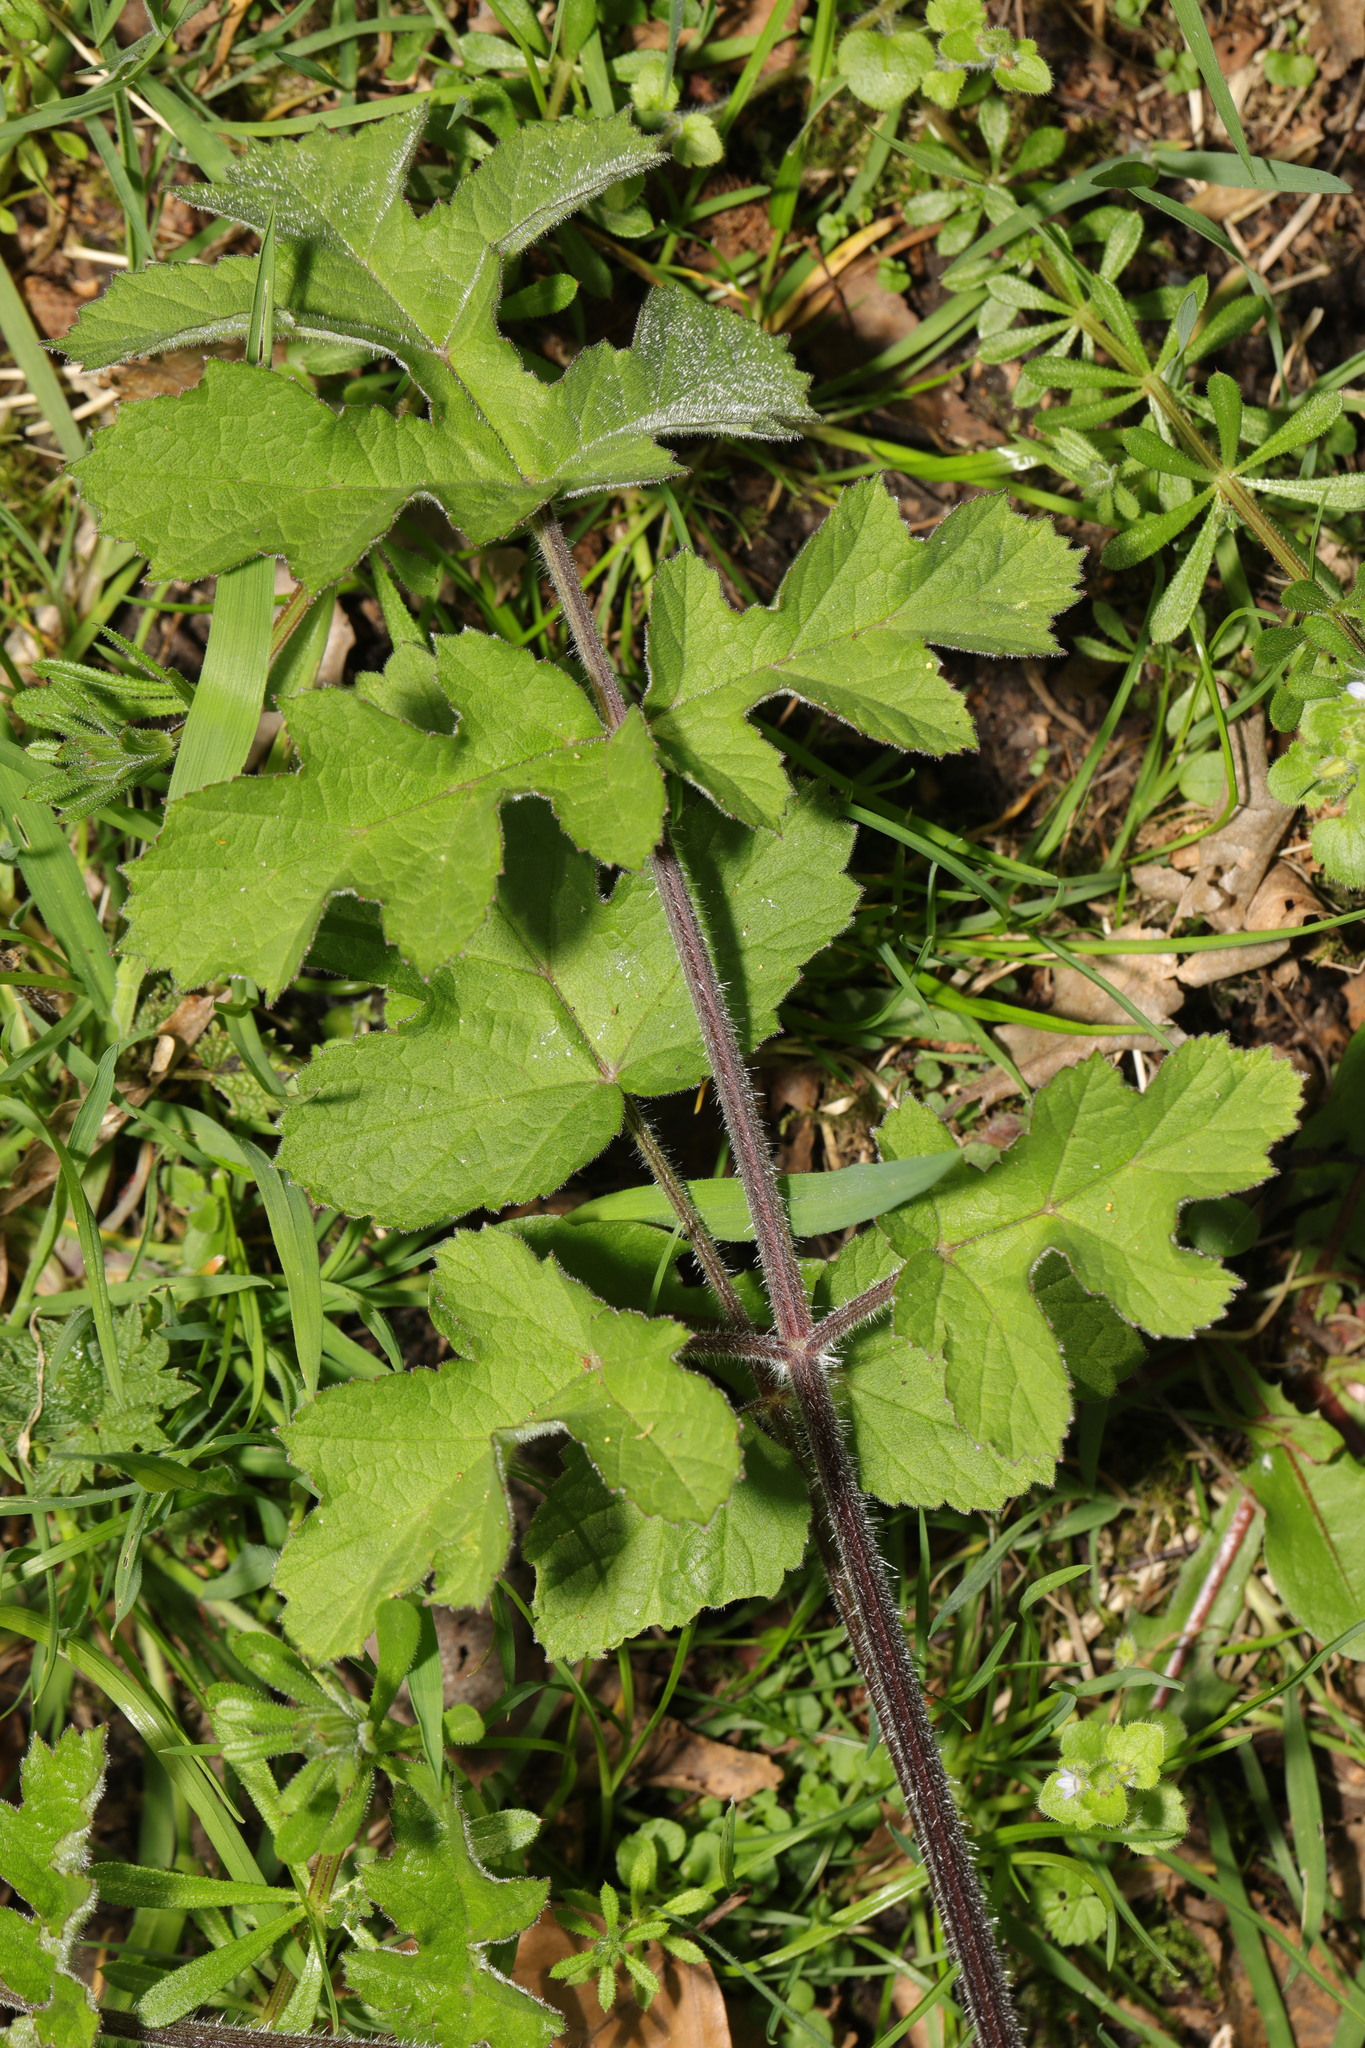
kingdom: Plantae
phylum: Tracheophyta
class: Magnoliopsida
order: Apiales
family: Apiaceae
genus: Heracleum
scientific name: Heracleum sphondylium
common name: Hogweed
